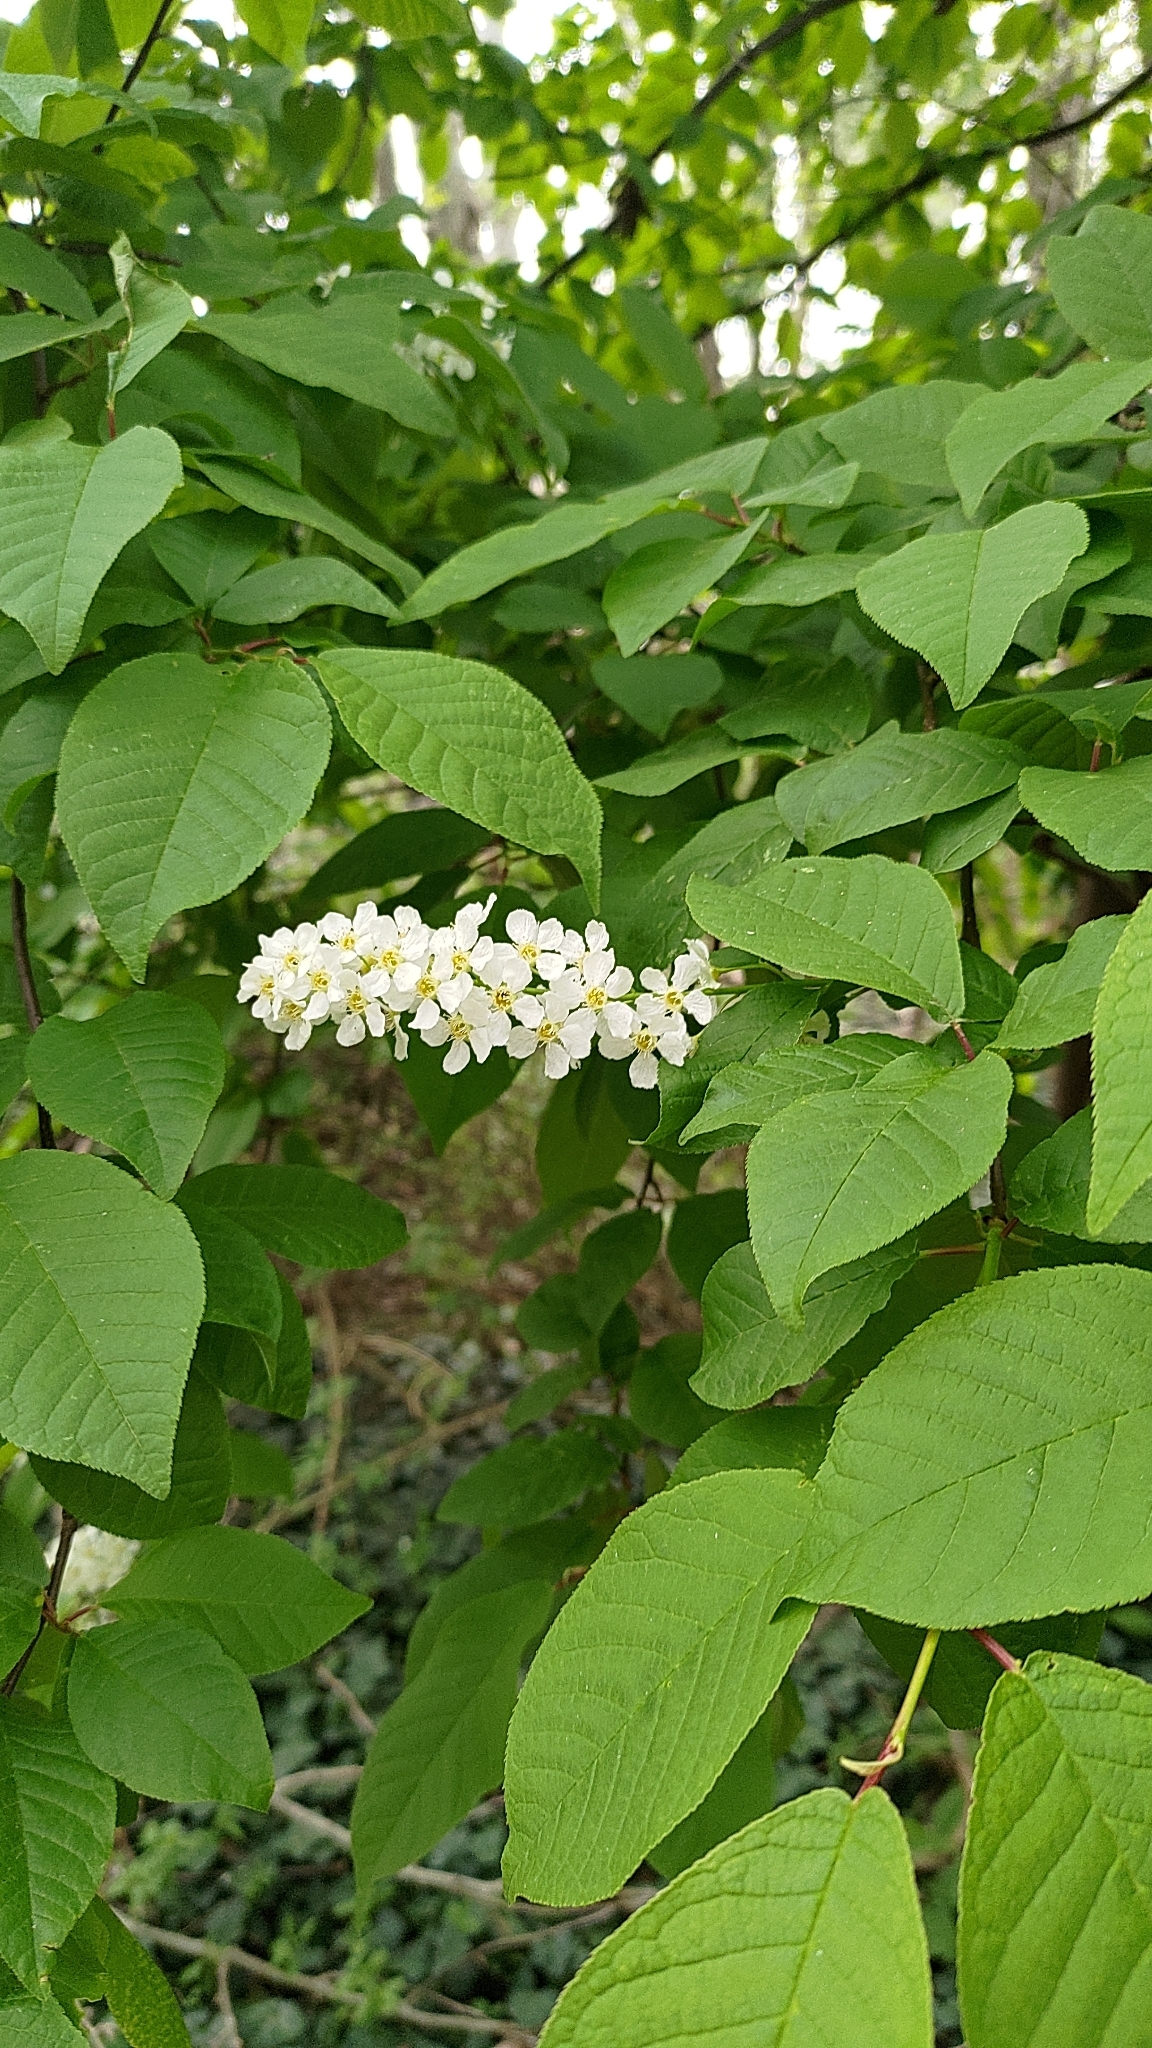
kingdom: Plantae
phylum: Tracheophyta
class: Magnoliopsida
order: Rosales
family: Rosaceae
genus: Prunus
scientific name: Prunus padus
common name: Bird cherry
